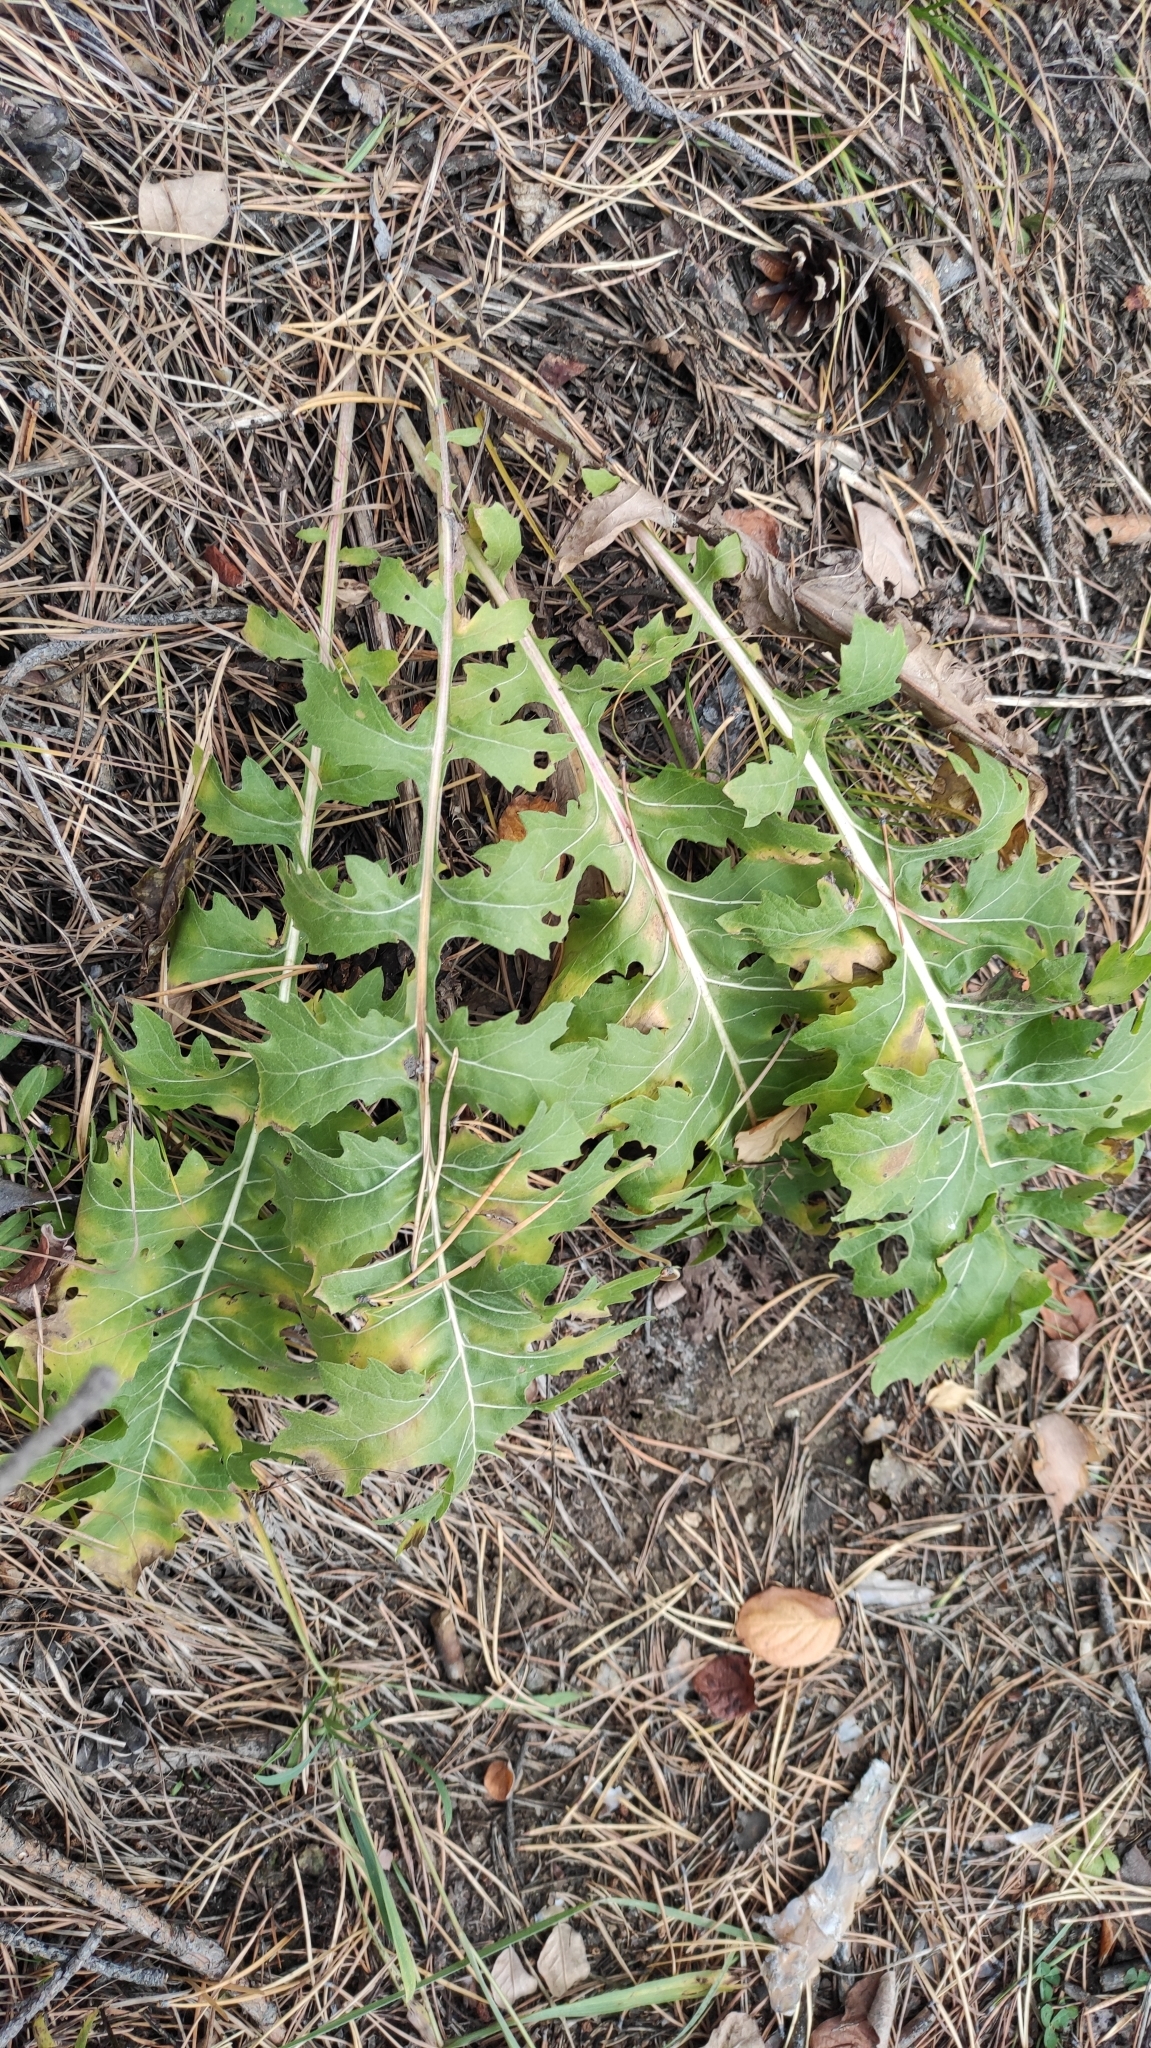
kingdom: Plantae
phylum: Tracheophyta
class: Magnoliopsida
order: Asterales
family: Asteraceae
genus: Leuzea
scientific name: Leuzea uniflora
